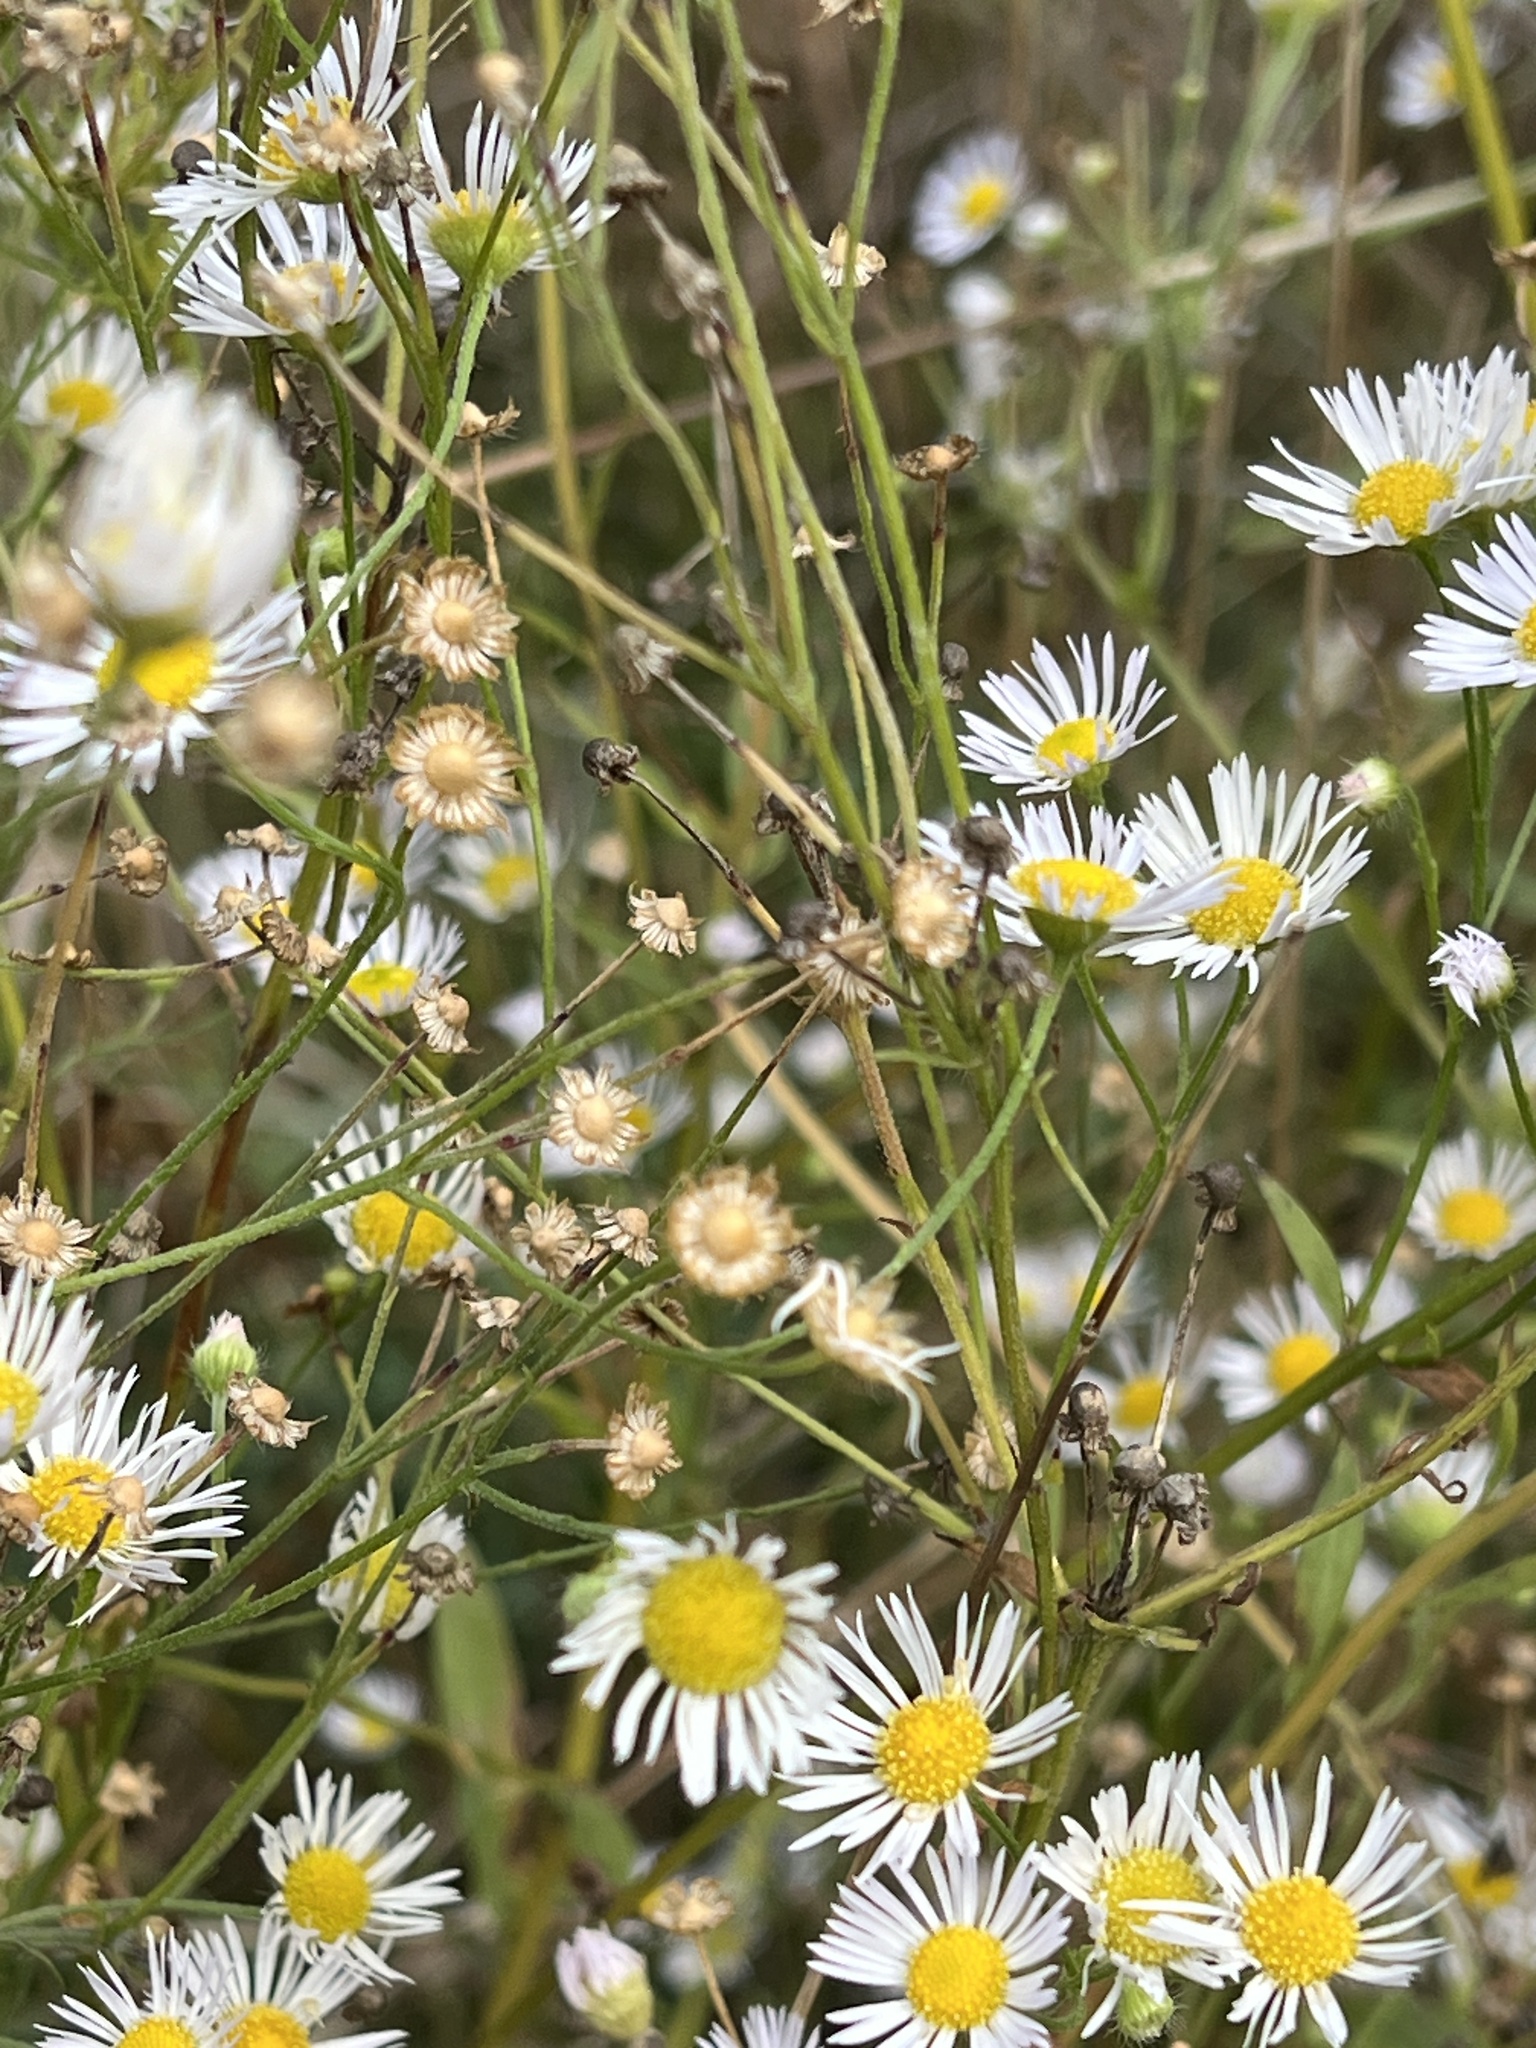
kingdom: Plantae
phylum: Tracheophyta
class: Magnoliopsida
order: Asterales
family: Asteraceae
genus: Erigeron
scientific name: Erigeron annuus
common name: Tall fleabane
